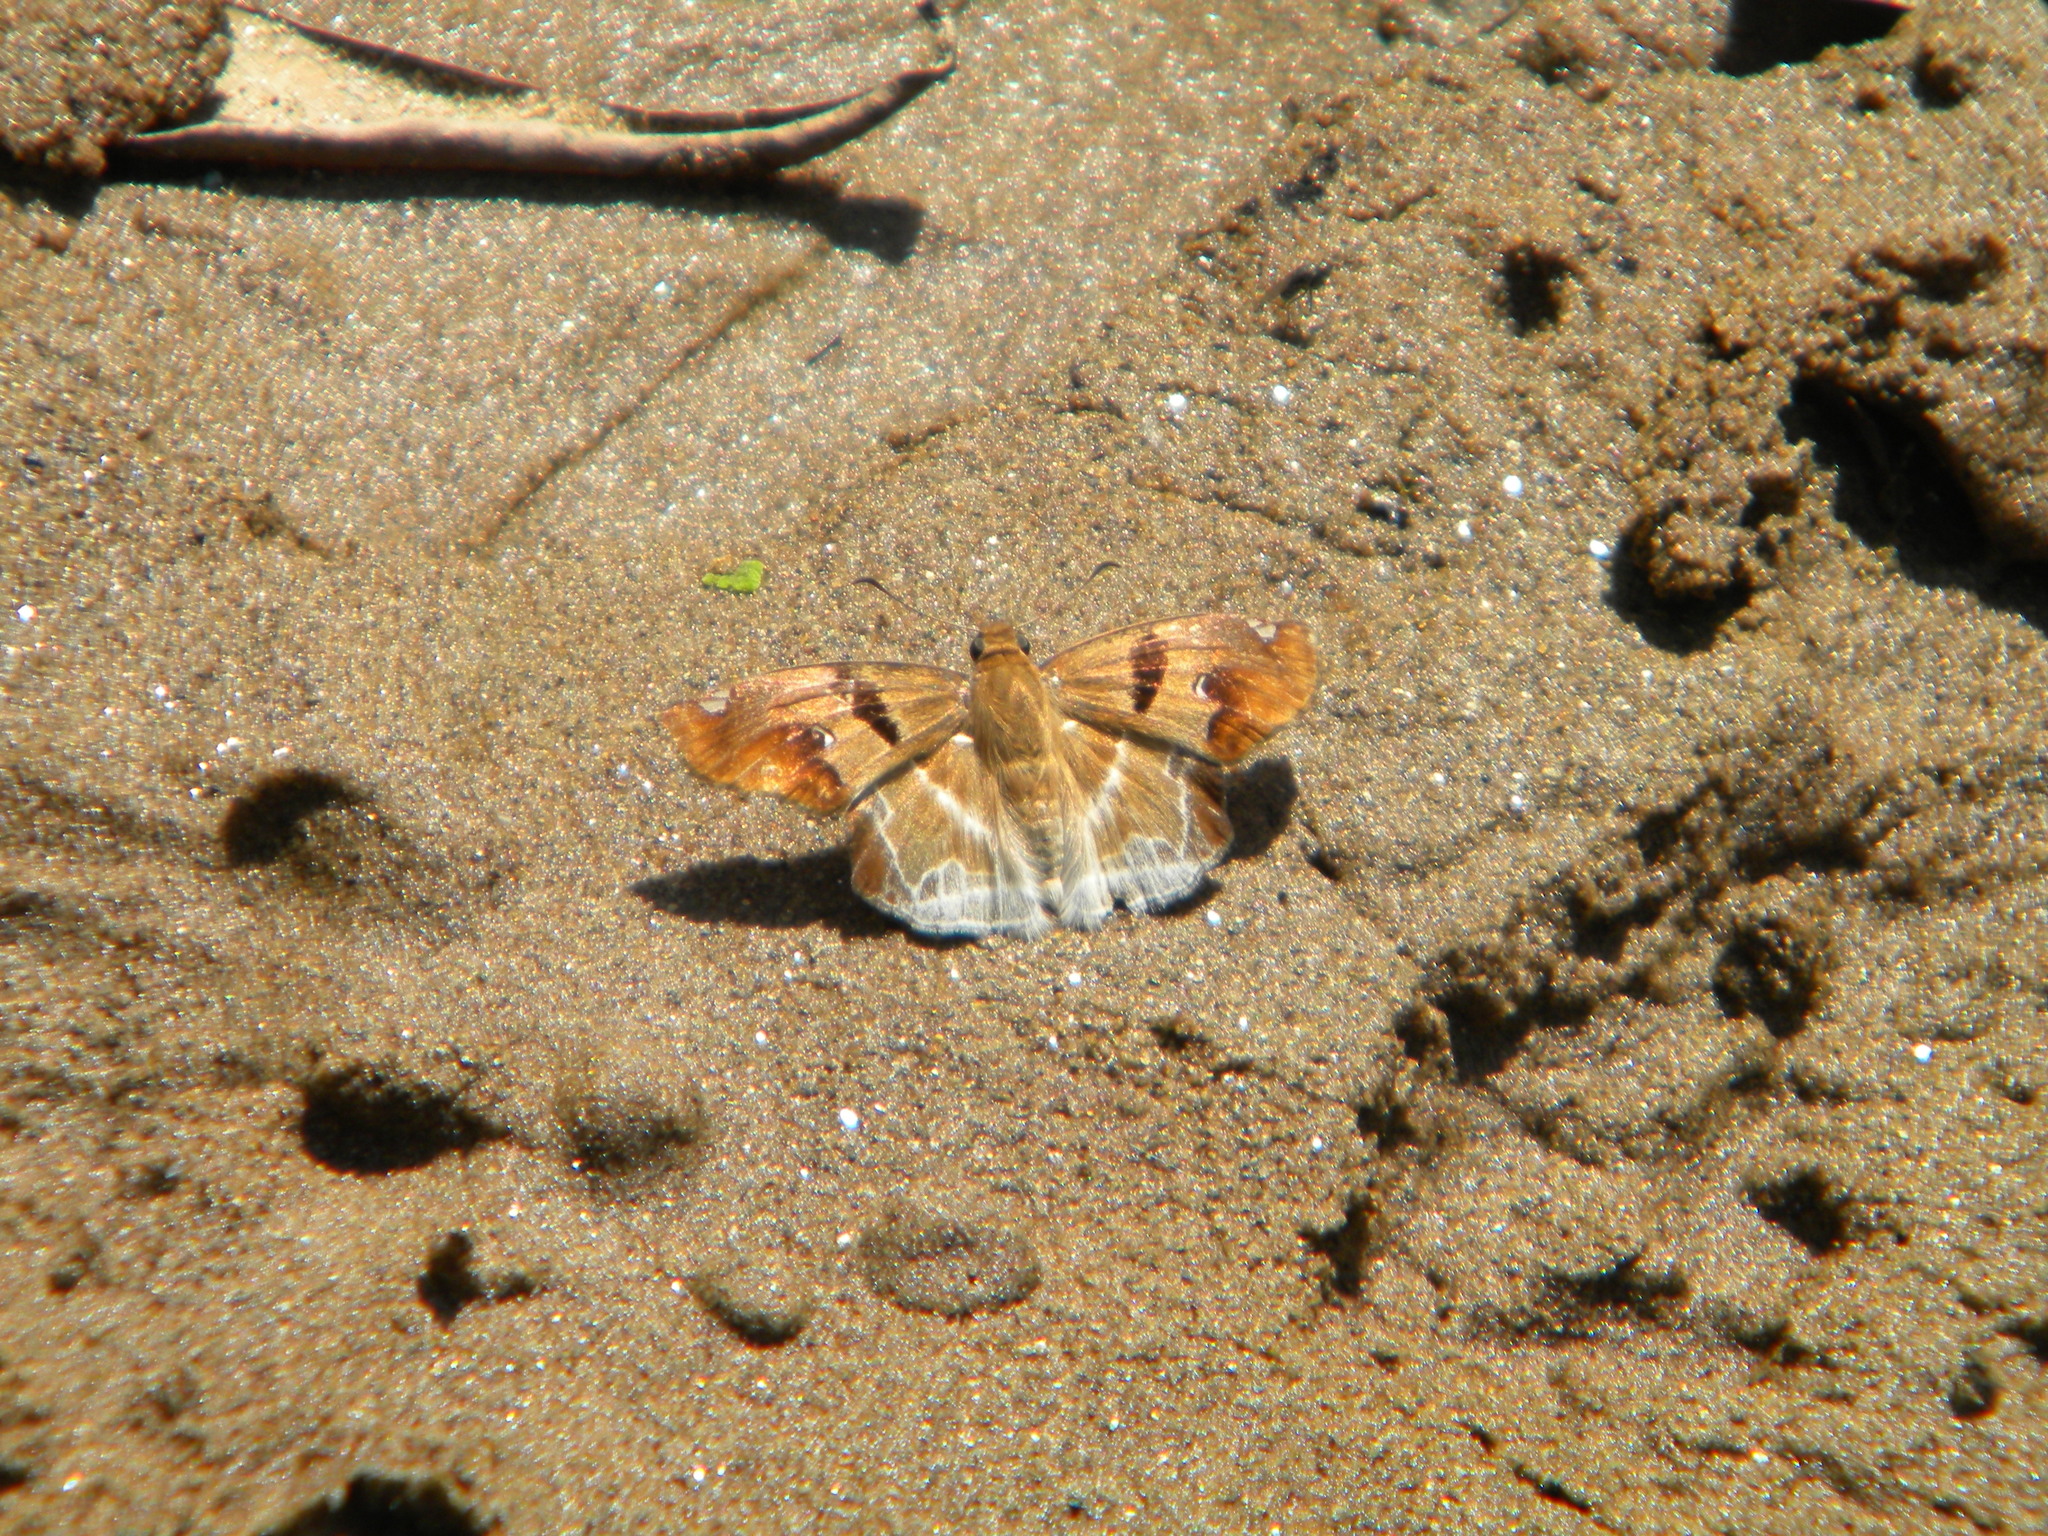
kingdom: Animalia
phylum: Arthropoda
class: Insecta
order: Lepidoptera
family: Hesperiidae
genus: Odontoptilum
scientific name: Odontoptilum angulata
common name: Chestnut banded angle
